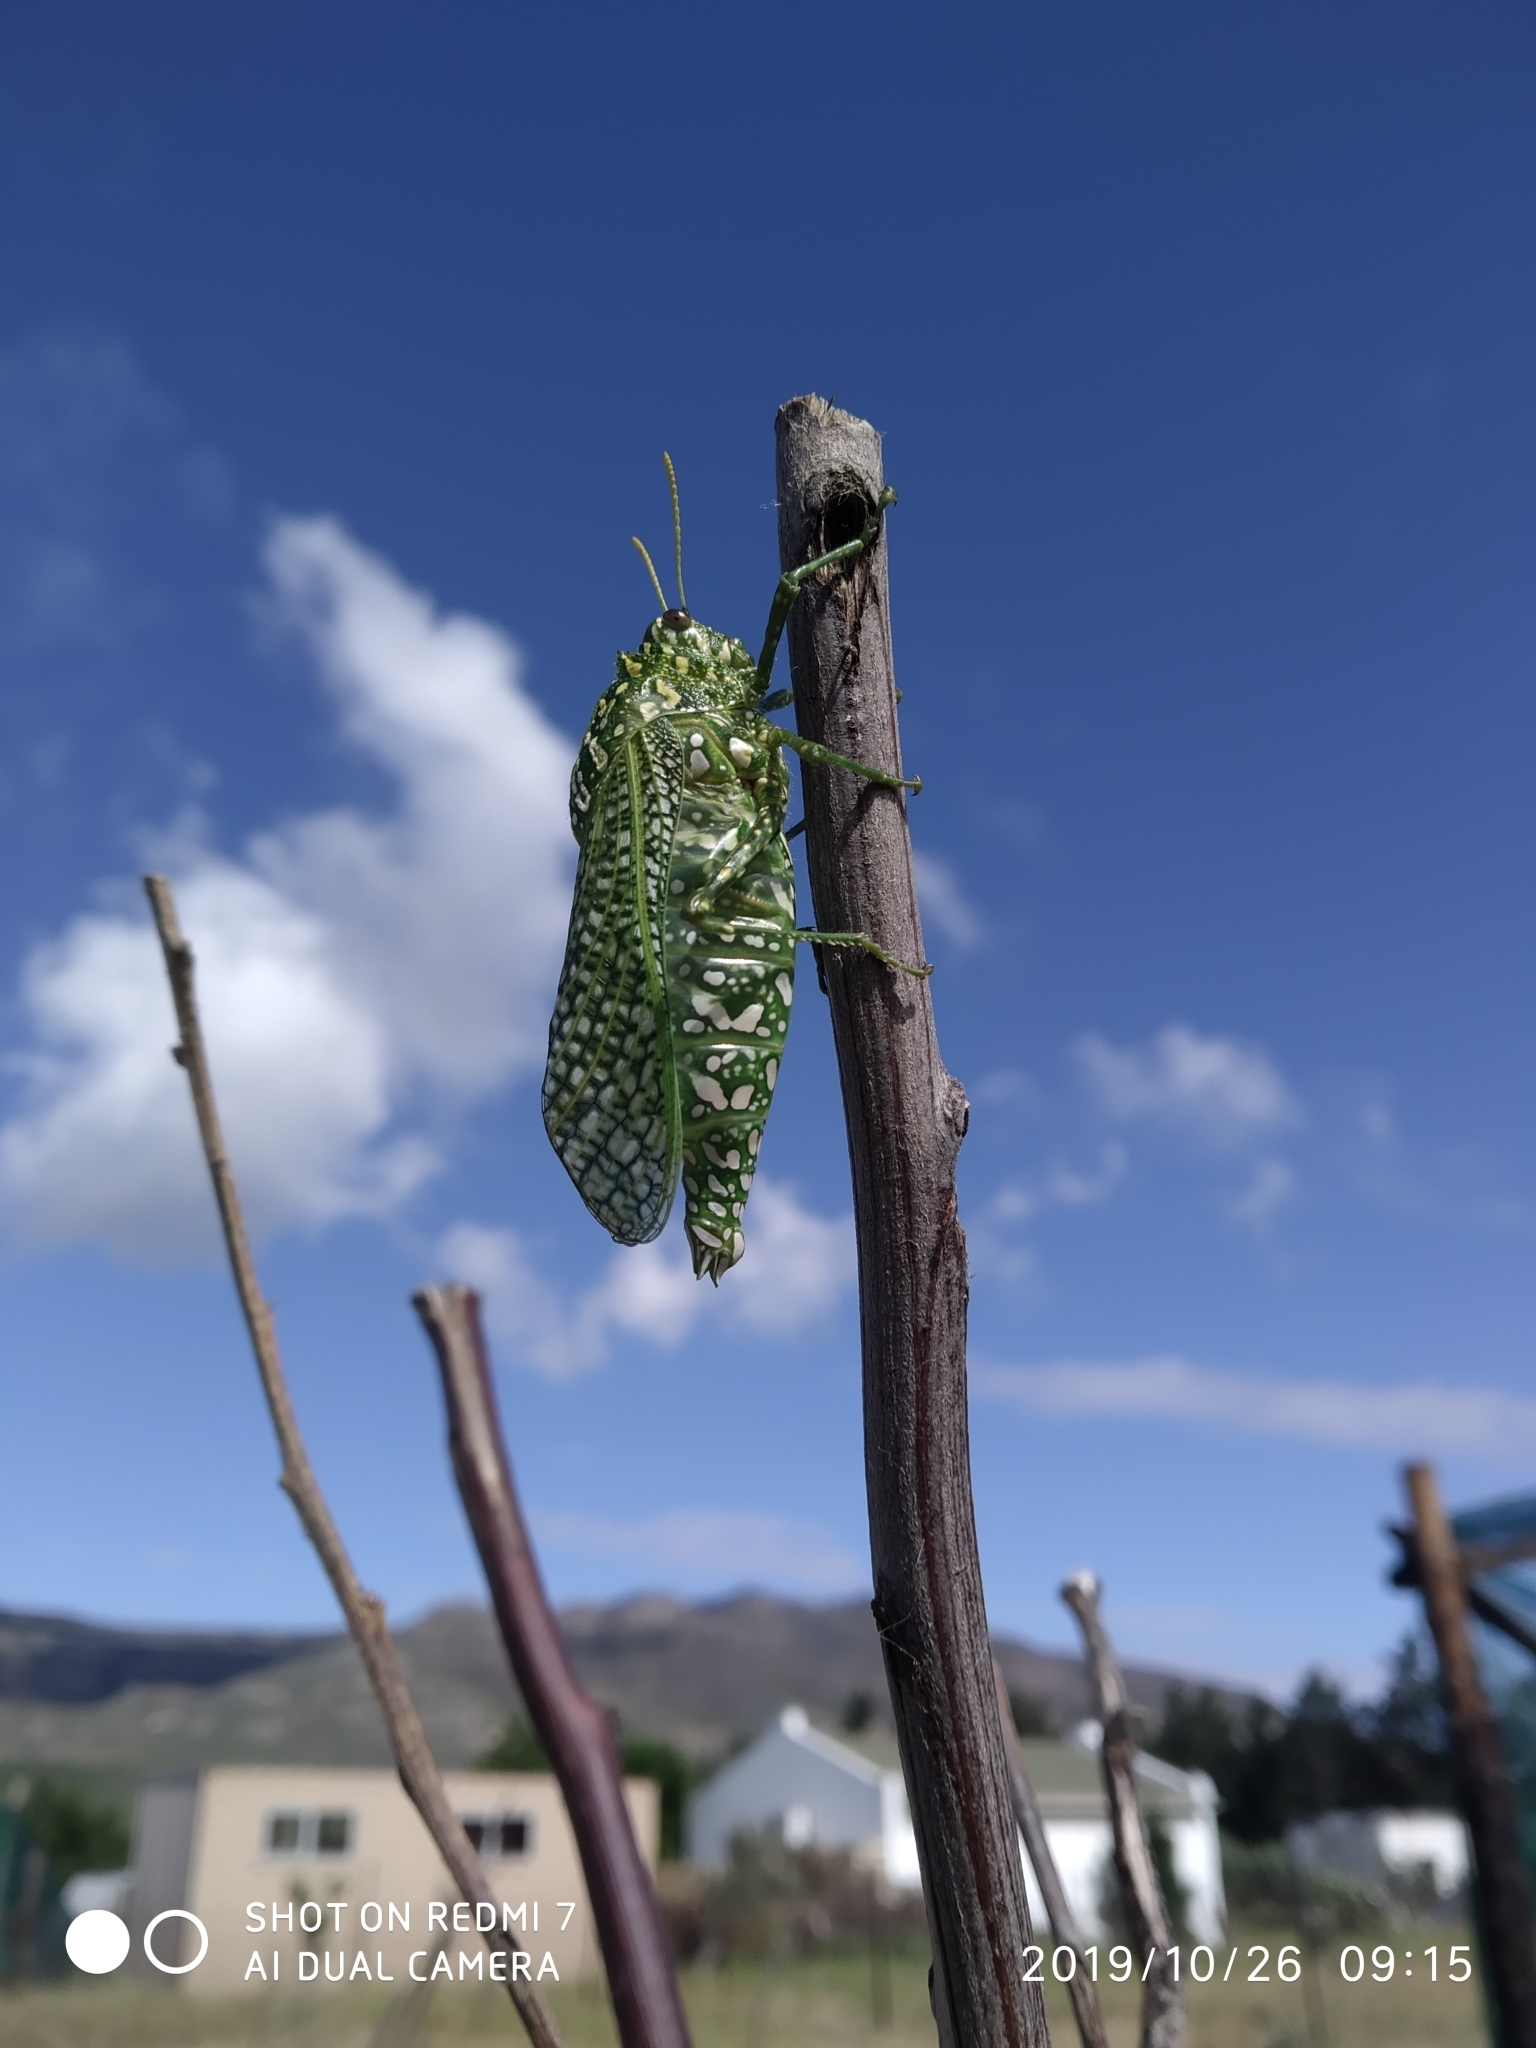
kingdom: Animalia
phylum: Arthropoda
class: Insecta
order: Orthoptera
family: Pneumoridae
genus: Physemacris
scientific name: Physemacris variolosa
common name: Silver spotted bladder grasshopper
